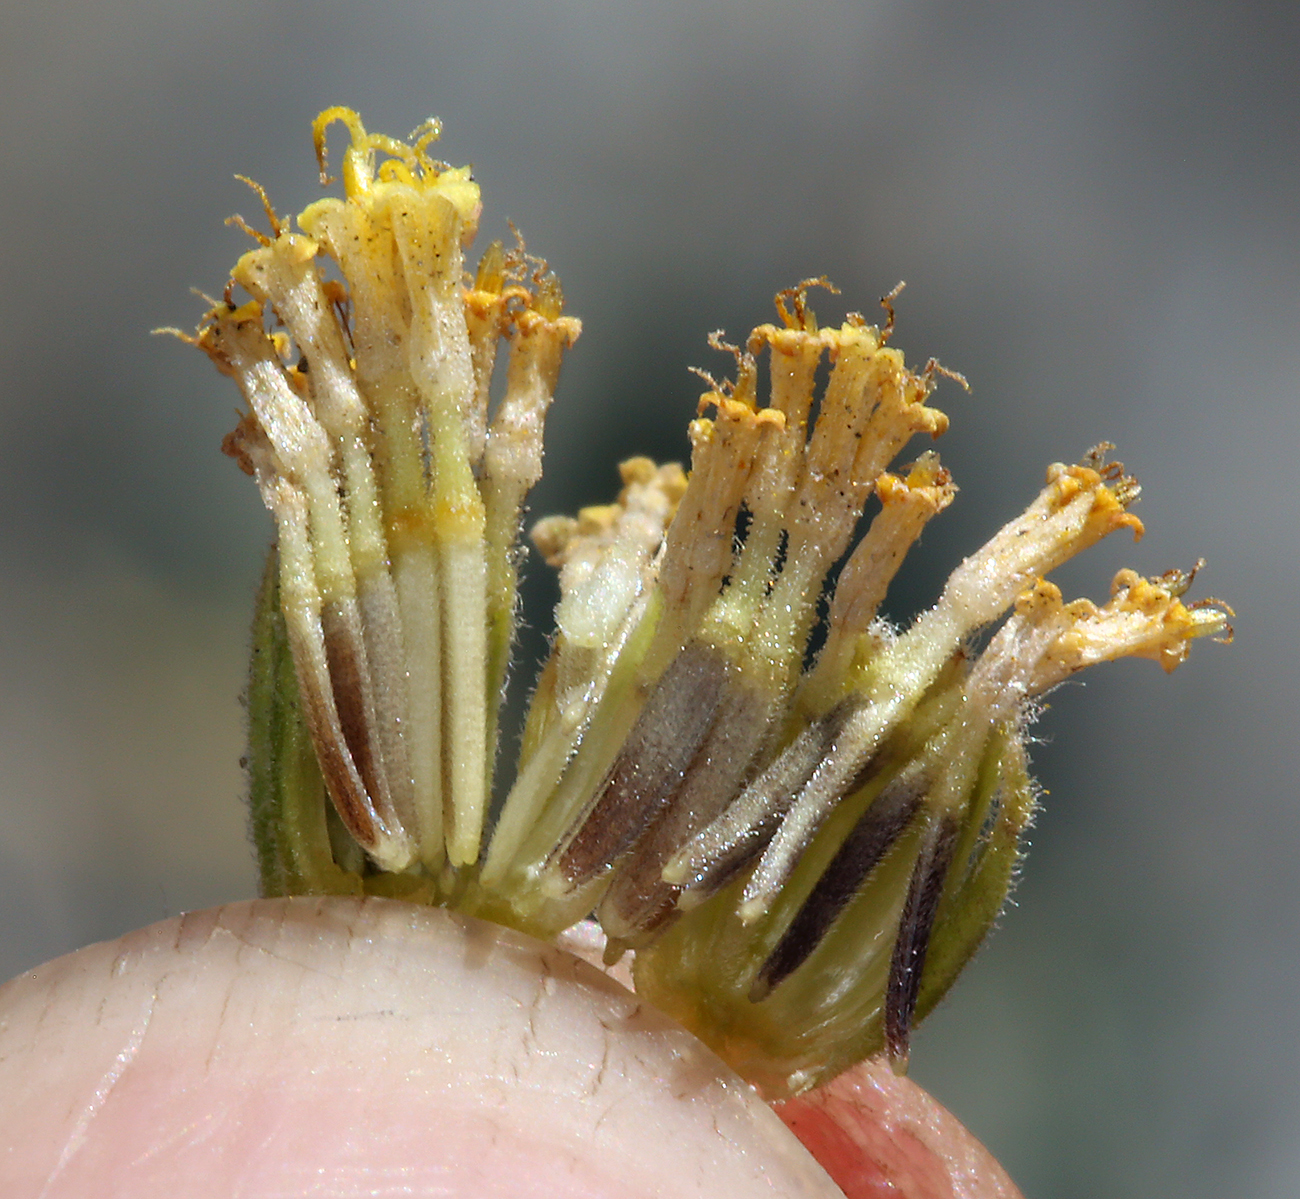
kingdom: Plantae
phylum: Tracheophyta
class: Magnoliopsida
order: Asterales
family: Asteraceae
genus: Laphamia
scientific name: Laphamia megalocephala
